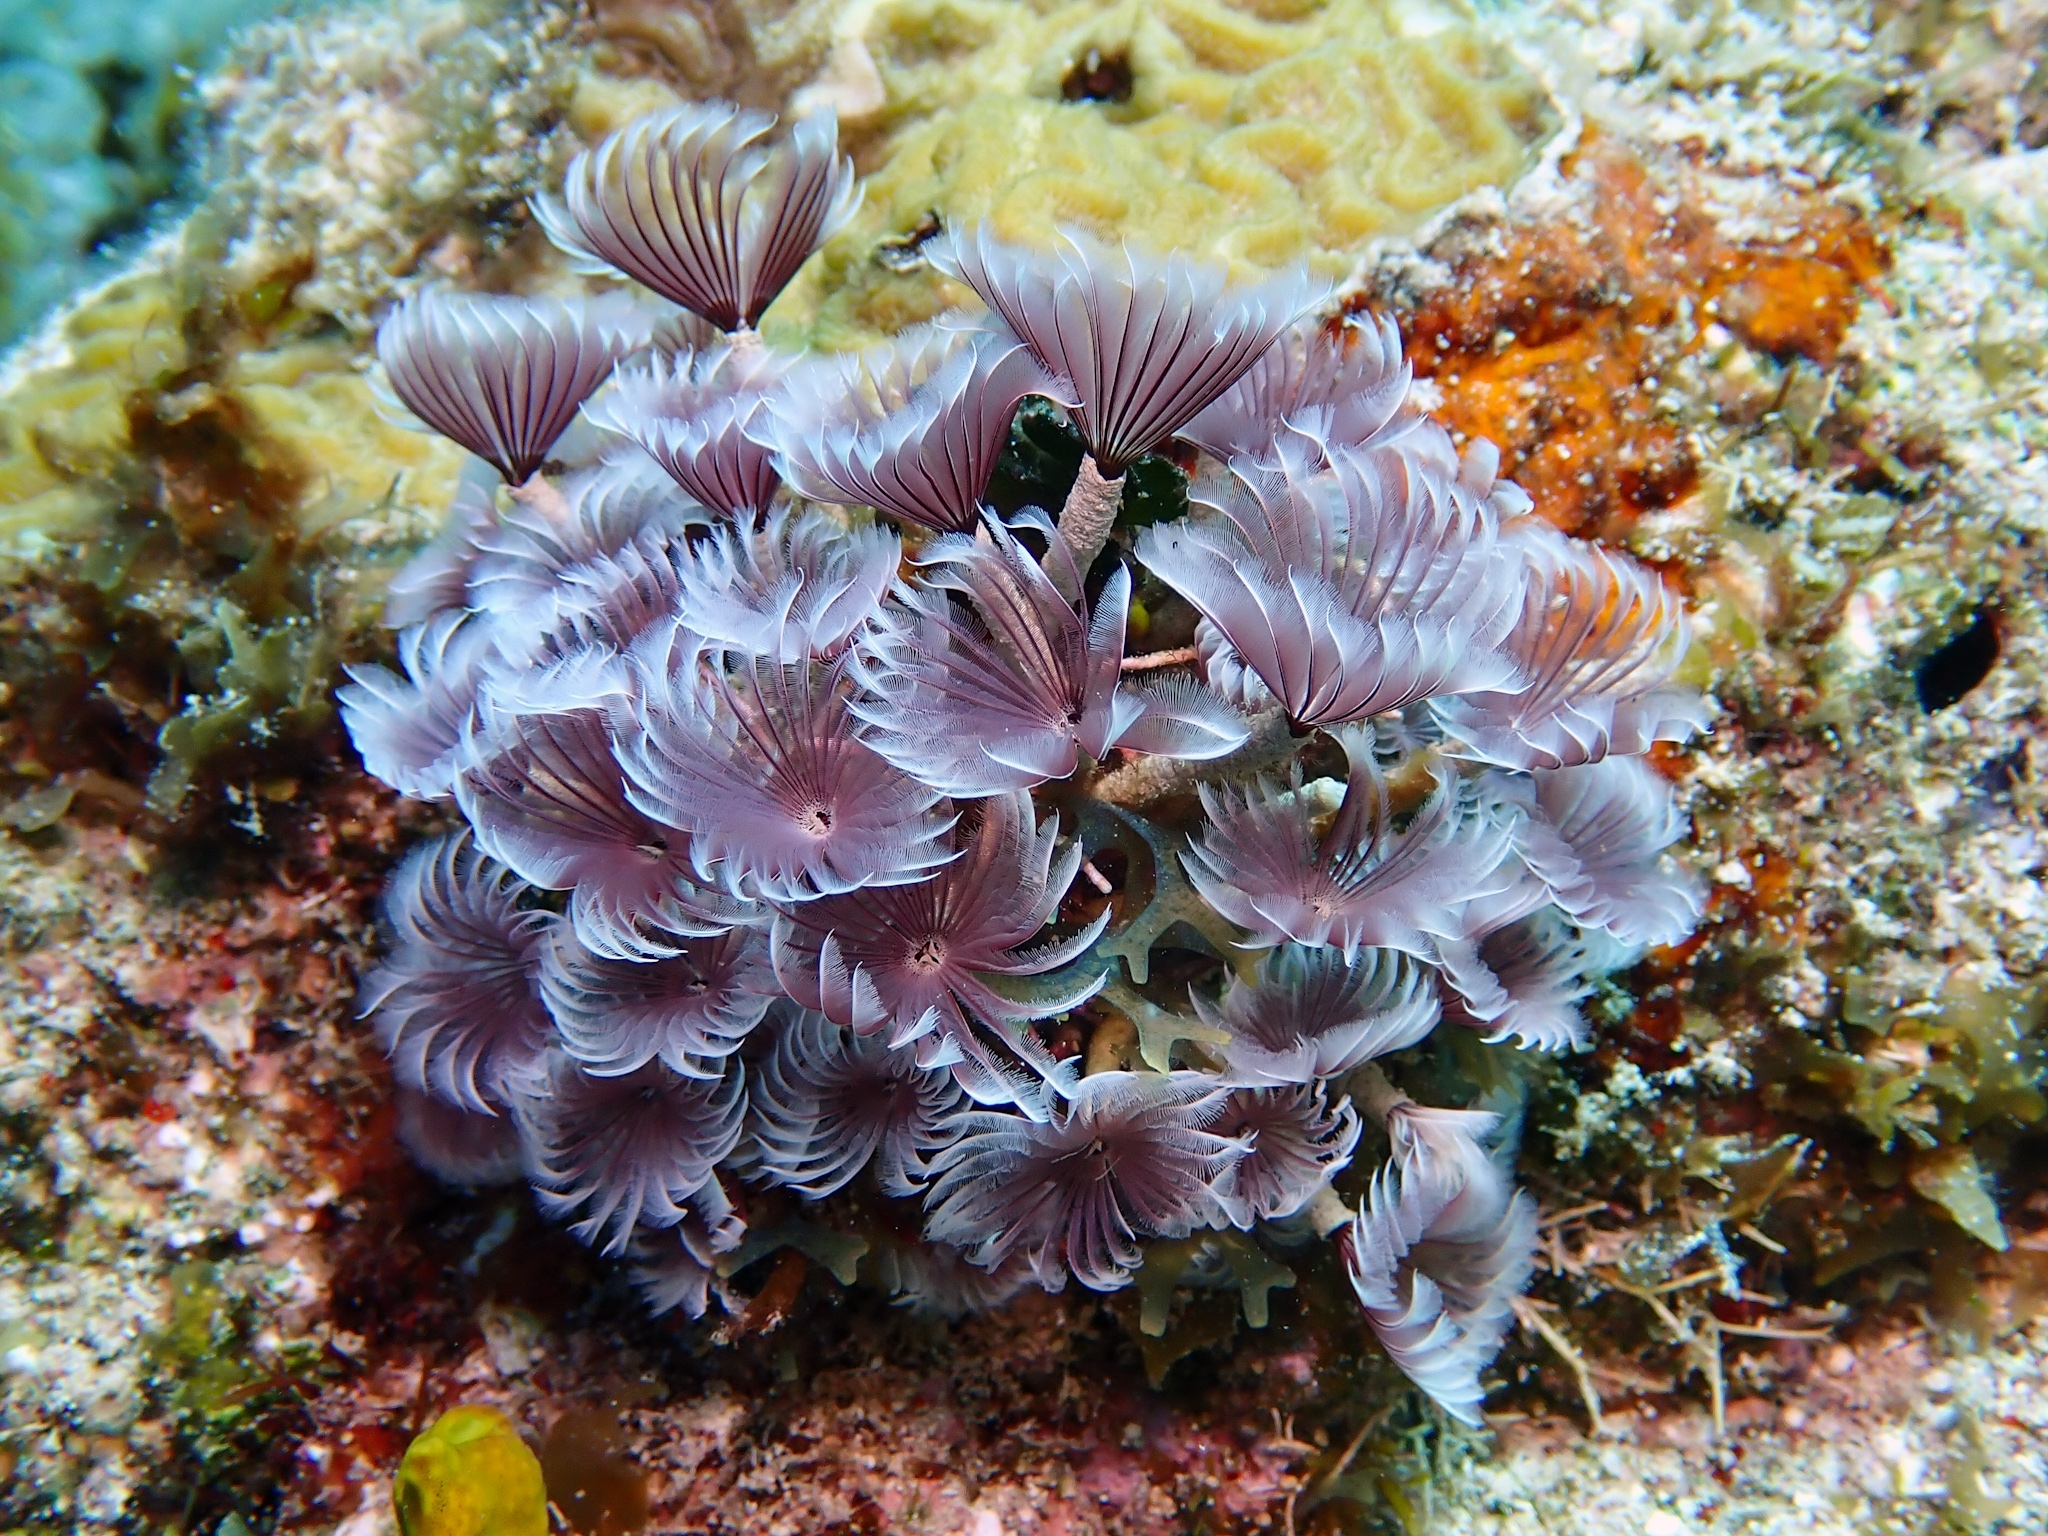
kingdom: Animalia
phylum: Annelida
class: Polychaeta
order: Sabellida
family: Sabellidae
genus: Bispira
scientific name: Bispira brunnea
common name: Social feather duster
